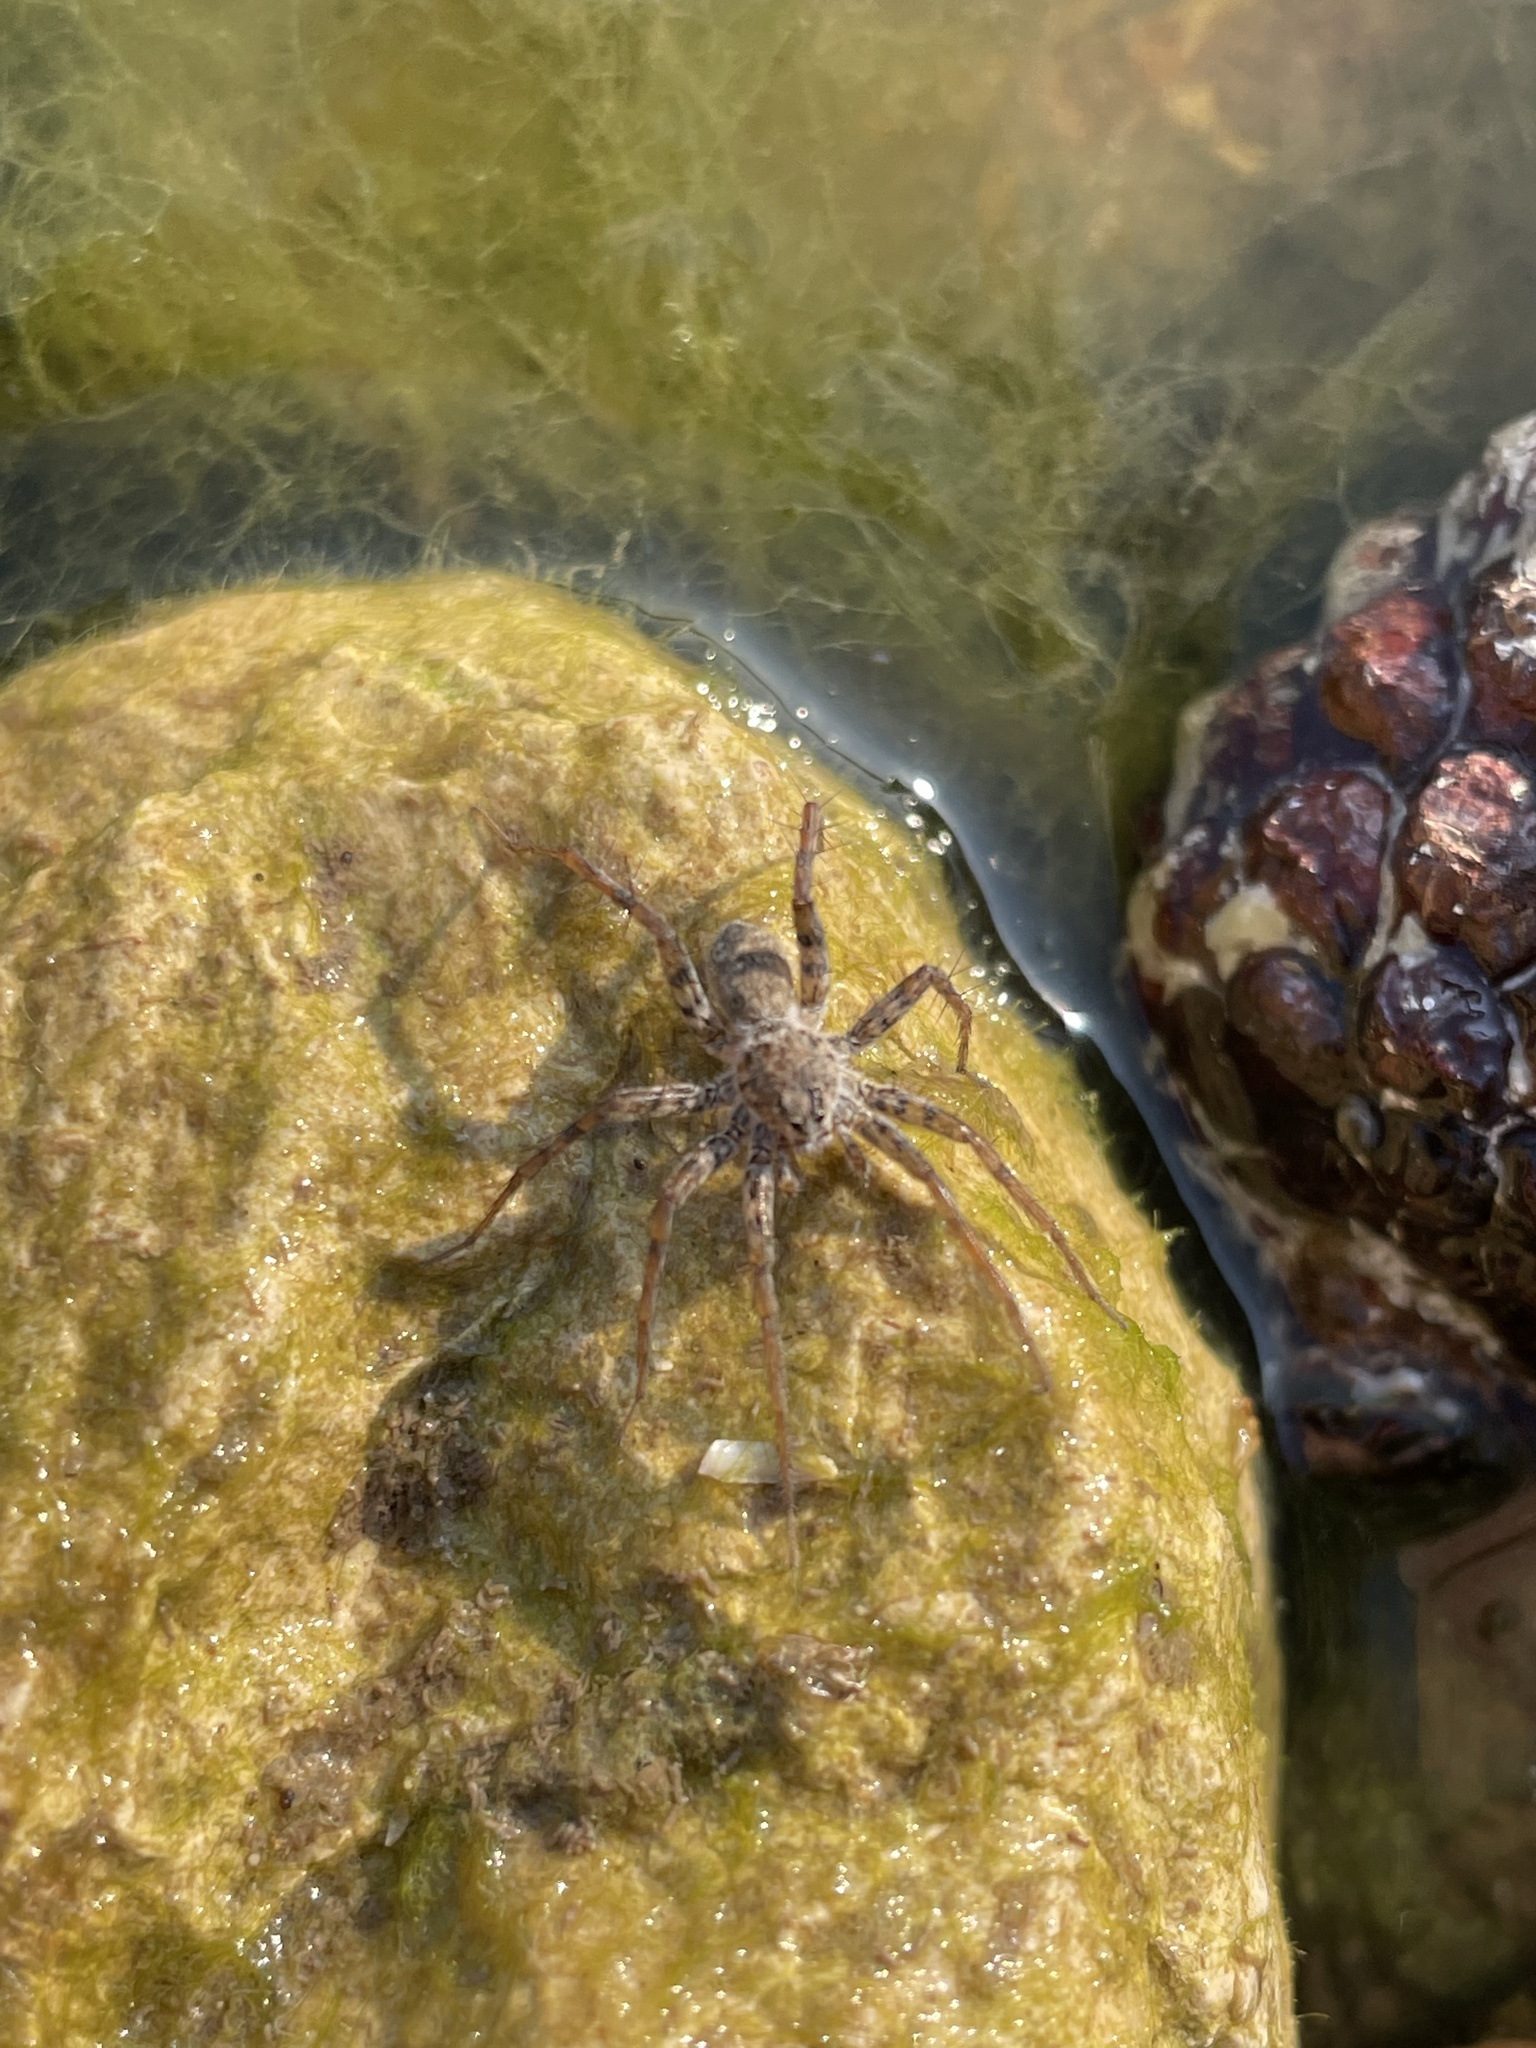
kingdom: Animalia
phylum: Arthropoda
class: Arachnida
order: Araneae
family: Lycosidae
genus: Pardosa
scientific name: Pardosa mercurialis
